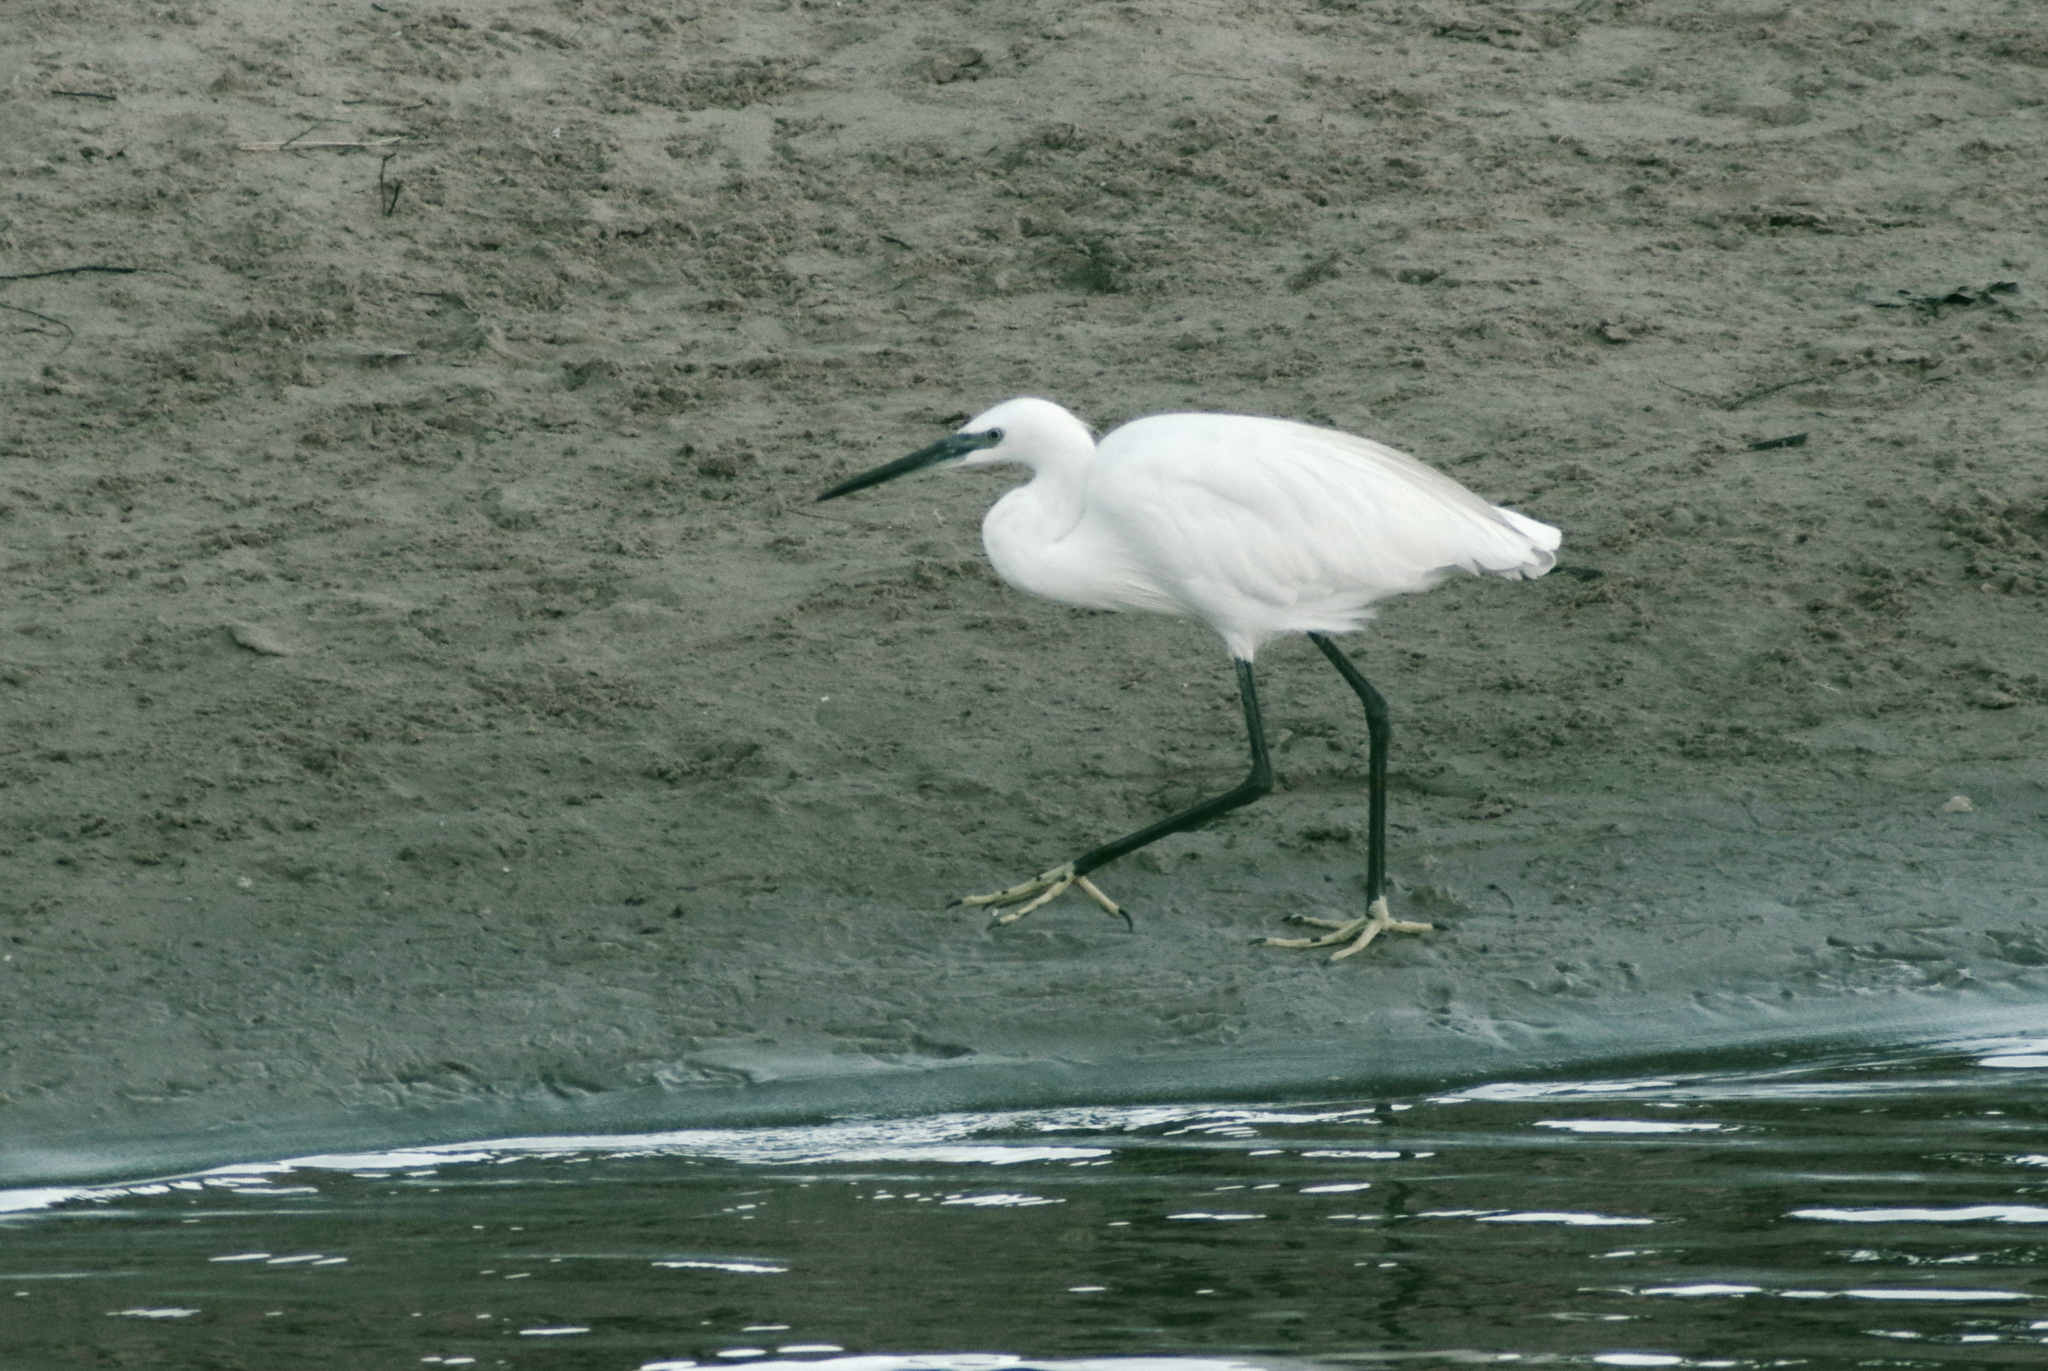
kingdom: Animalia
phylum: Chordata
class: Aves
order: Pelecaniformes
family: Ardeidae
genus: Egretta
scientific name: Egretta garzetta
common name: Little egret
